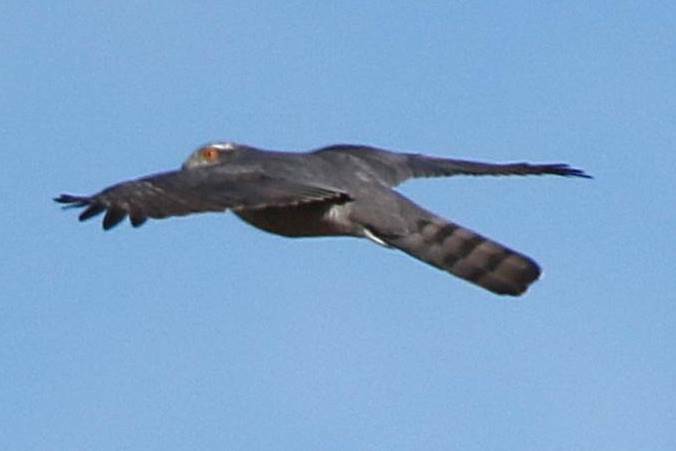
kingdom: Animalia
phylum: Chordata
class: Aves
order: Accipitriformes
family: Accipitridae
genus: Accipiter
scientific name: Accipiter gentilis
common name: Northern goshawk
